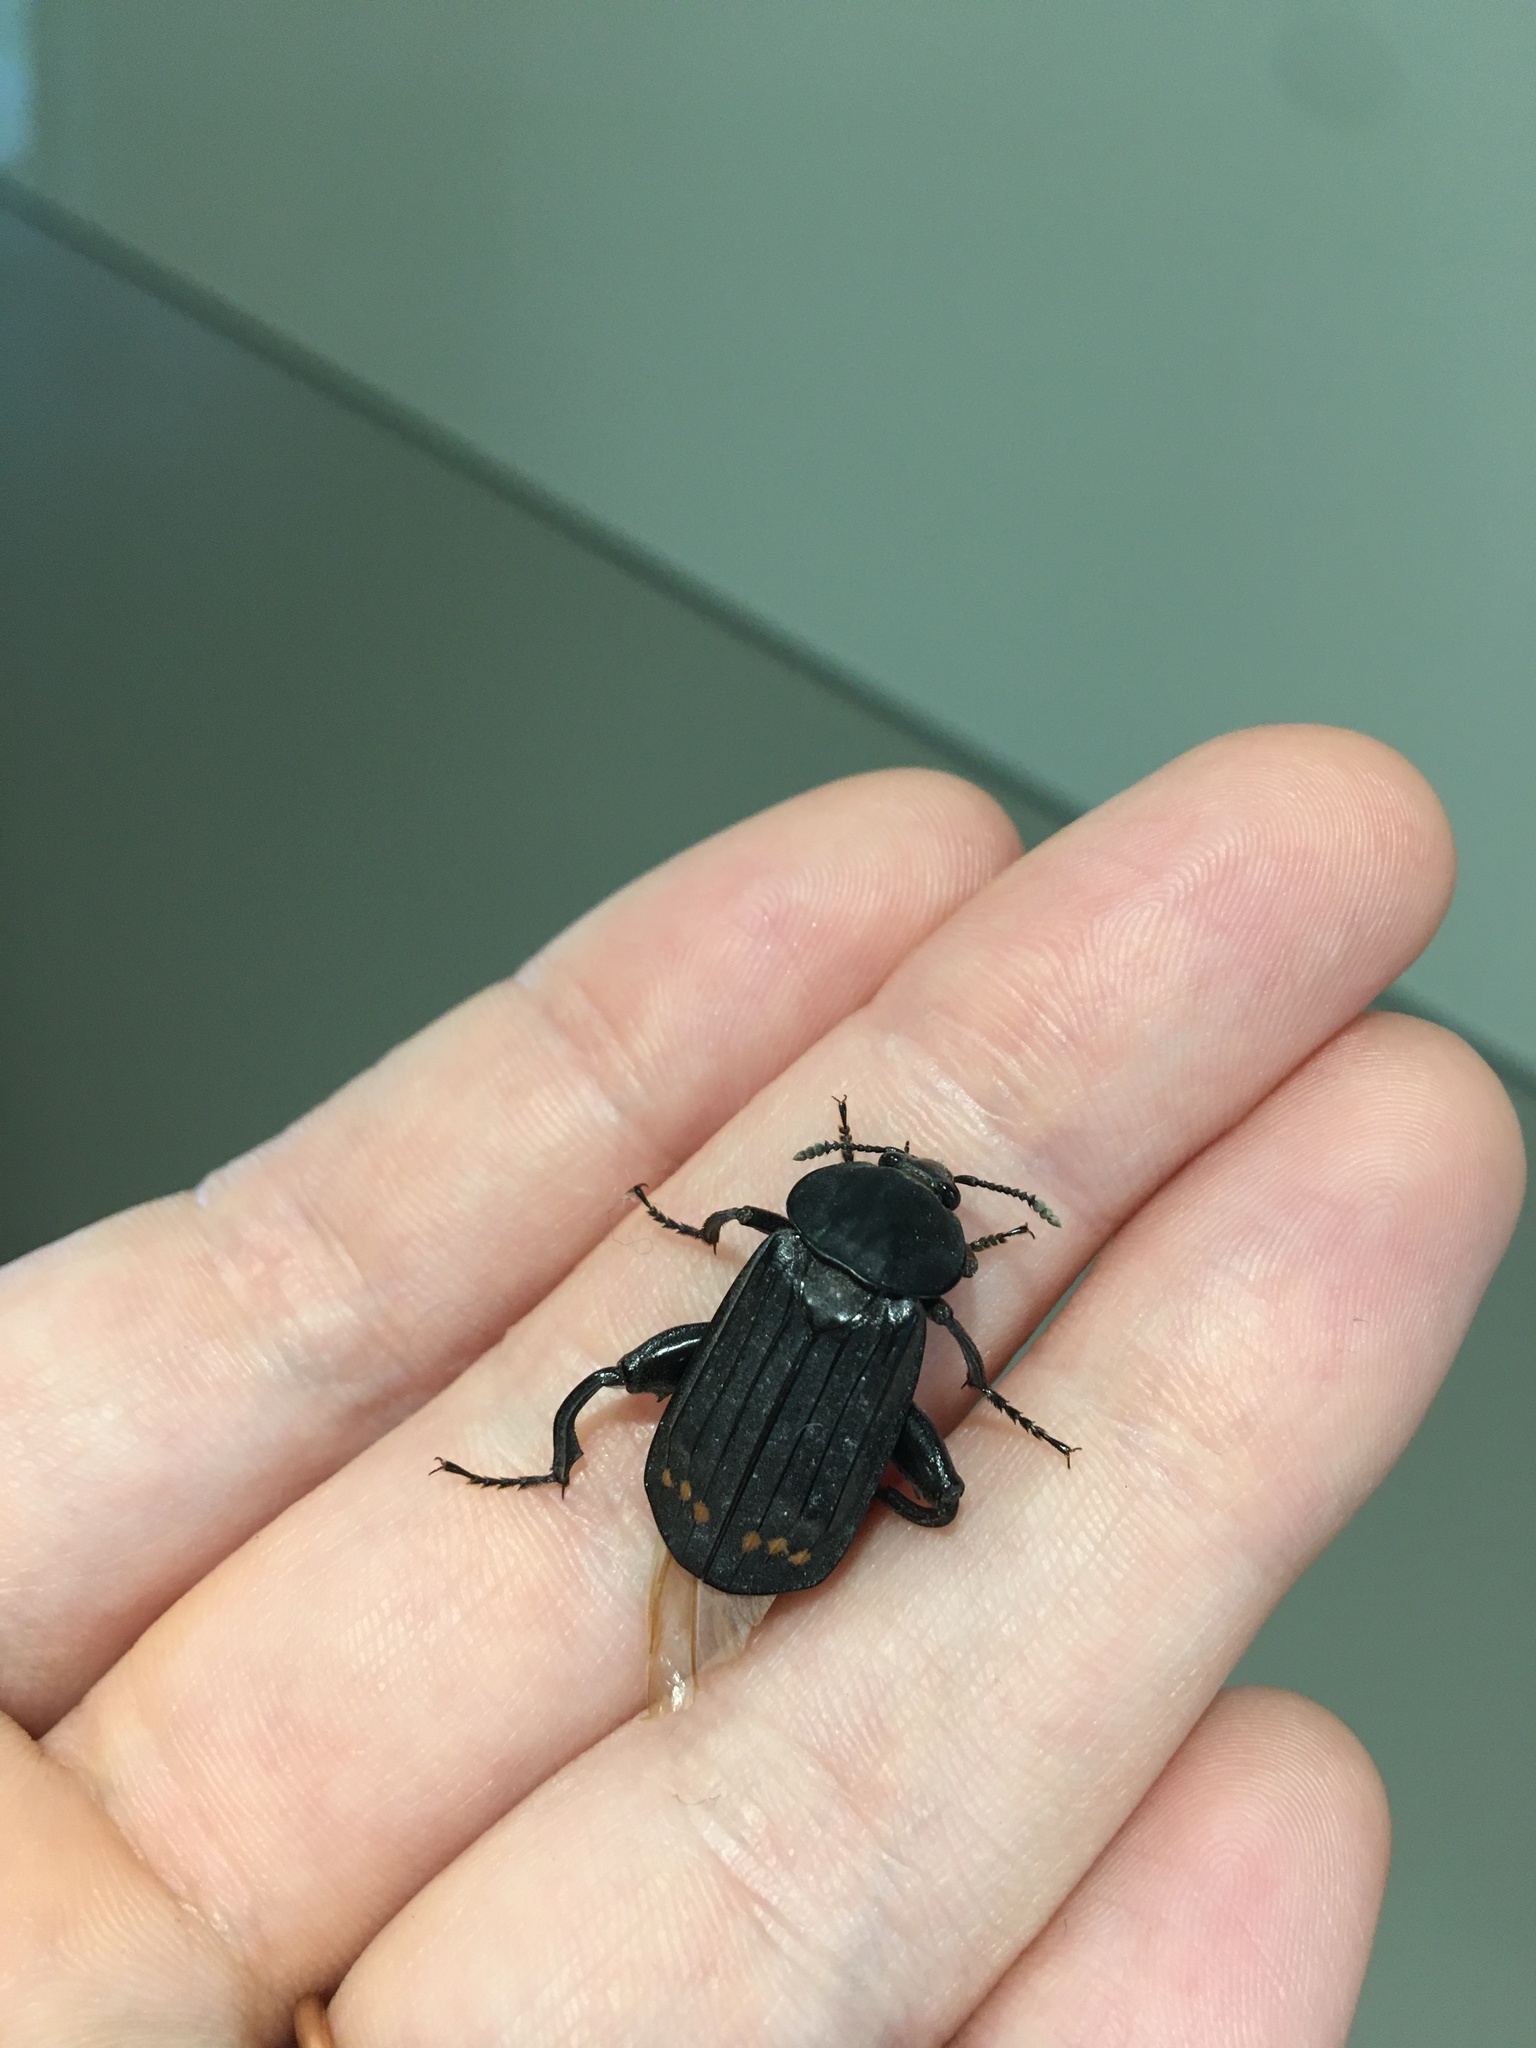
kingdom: Animalia
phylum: Arthropoda
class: Insecta
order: Coleoptera
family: Staphylinidae
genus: Necrodes
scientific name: Necrodes surinamensis
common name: Red-lined carrion beetle
